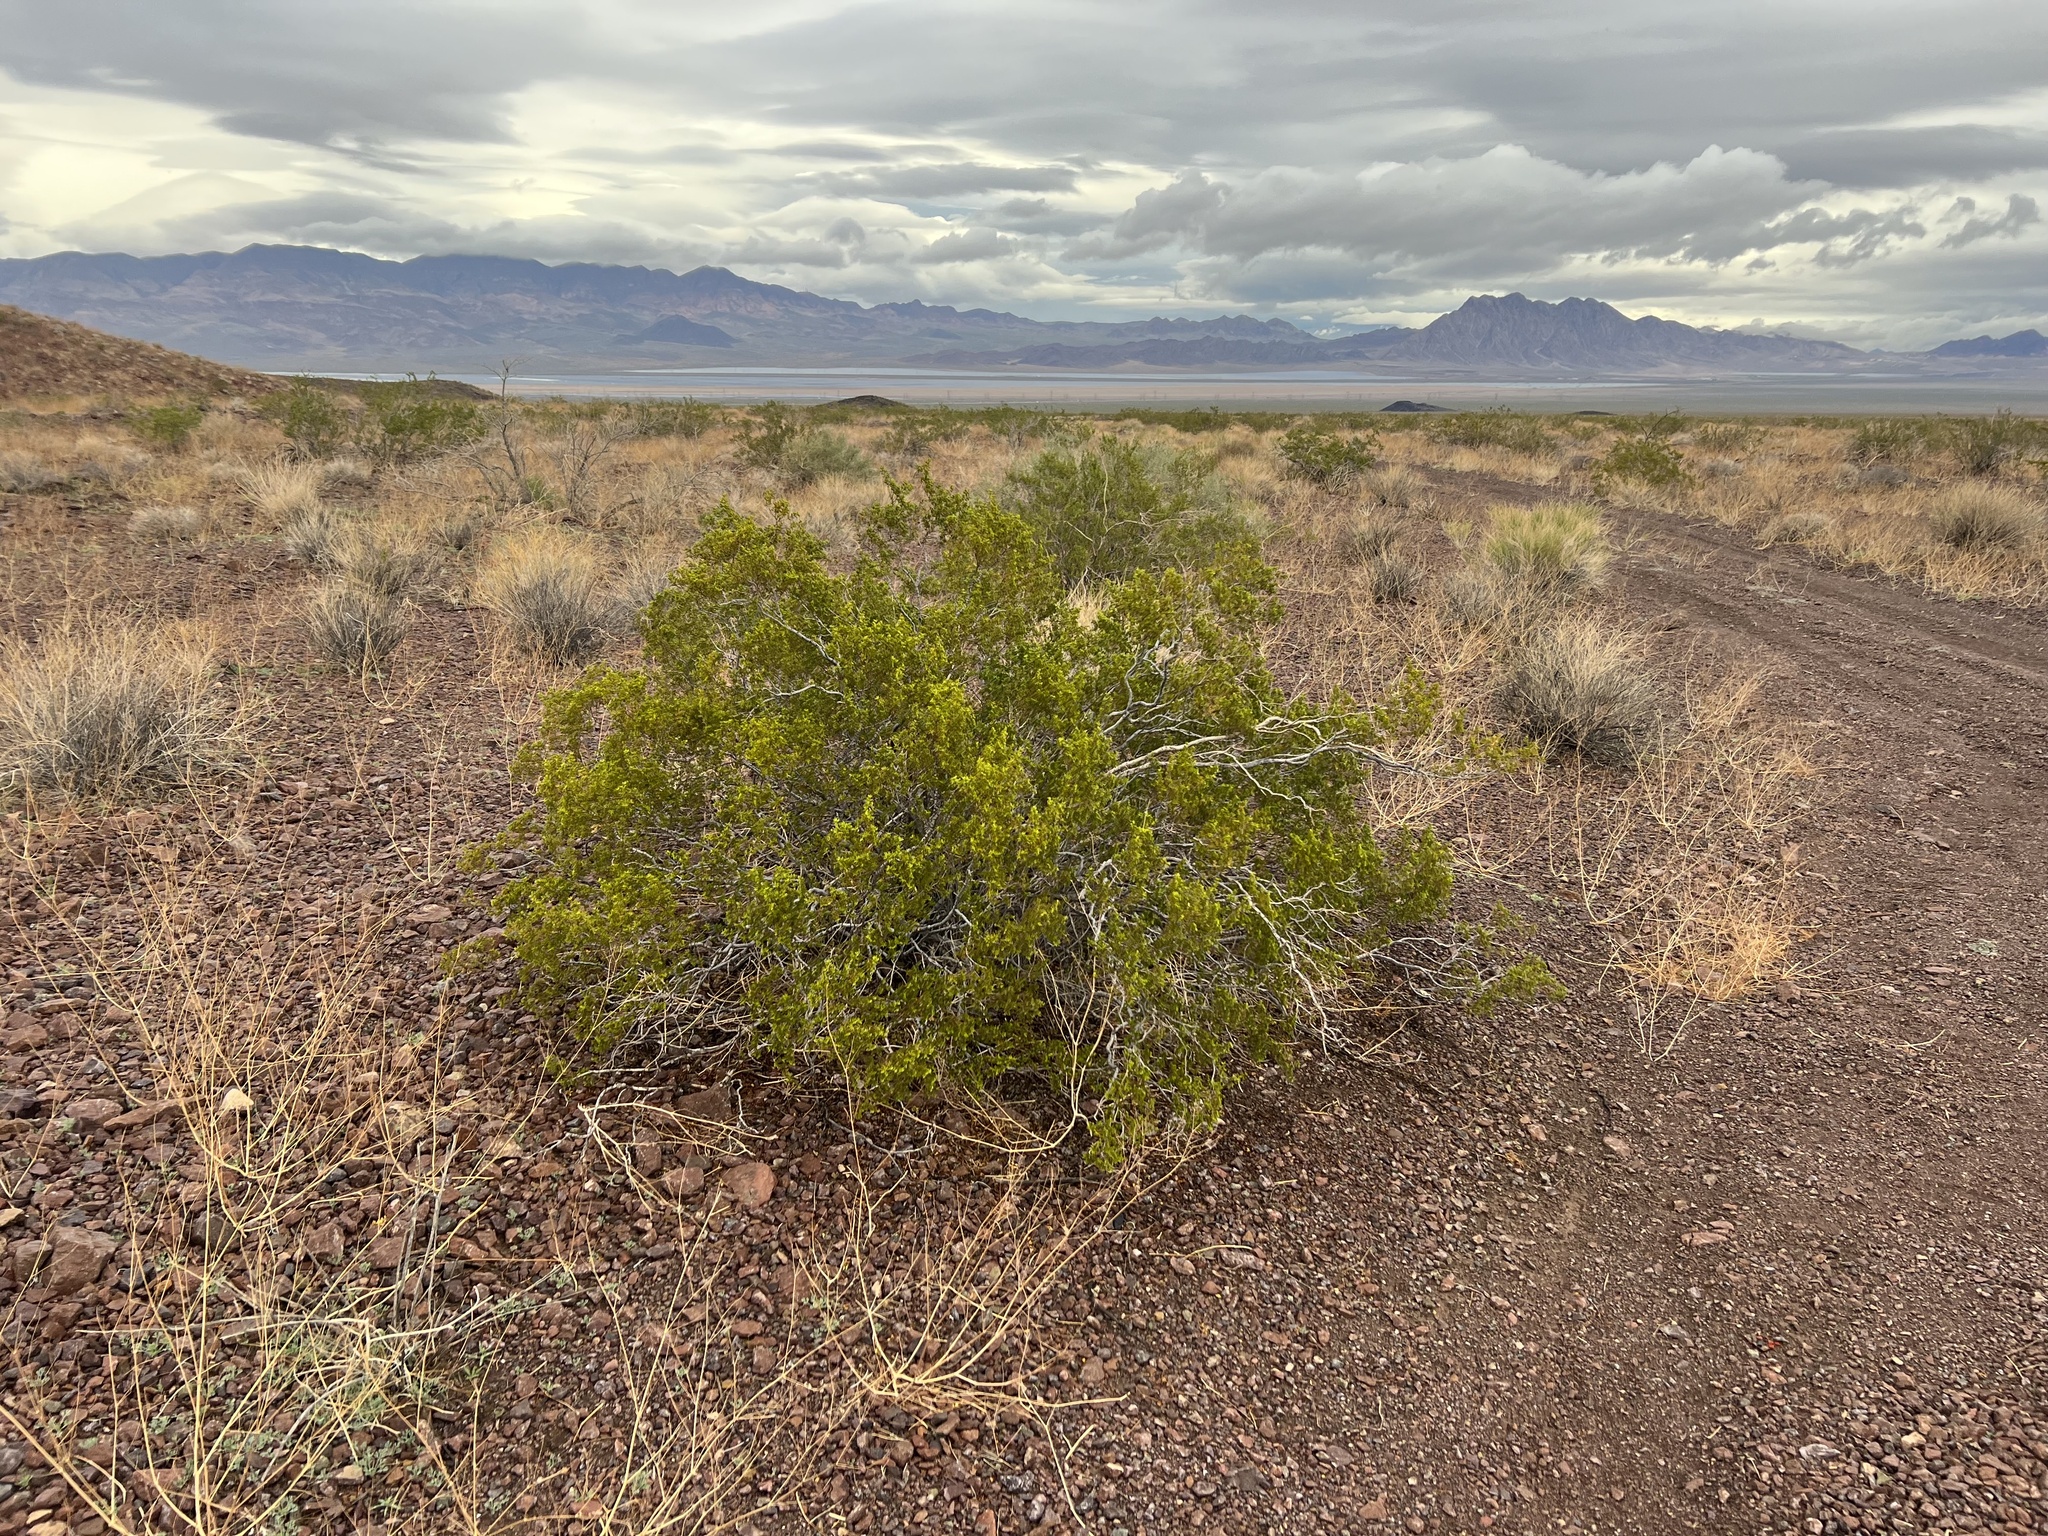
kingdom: Plantae
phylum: Tracheophyta
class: Magnoliopsida
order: Zygophyllales
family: Zygophyllaceae
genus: Larrea
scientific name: Larrea tridentata
